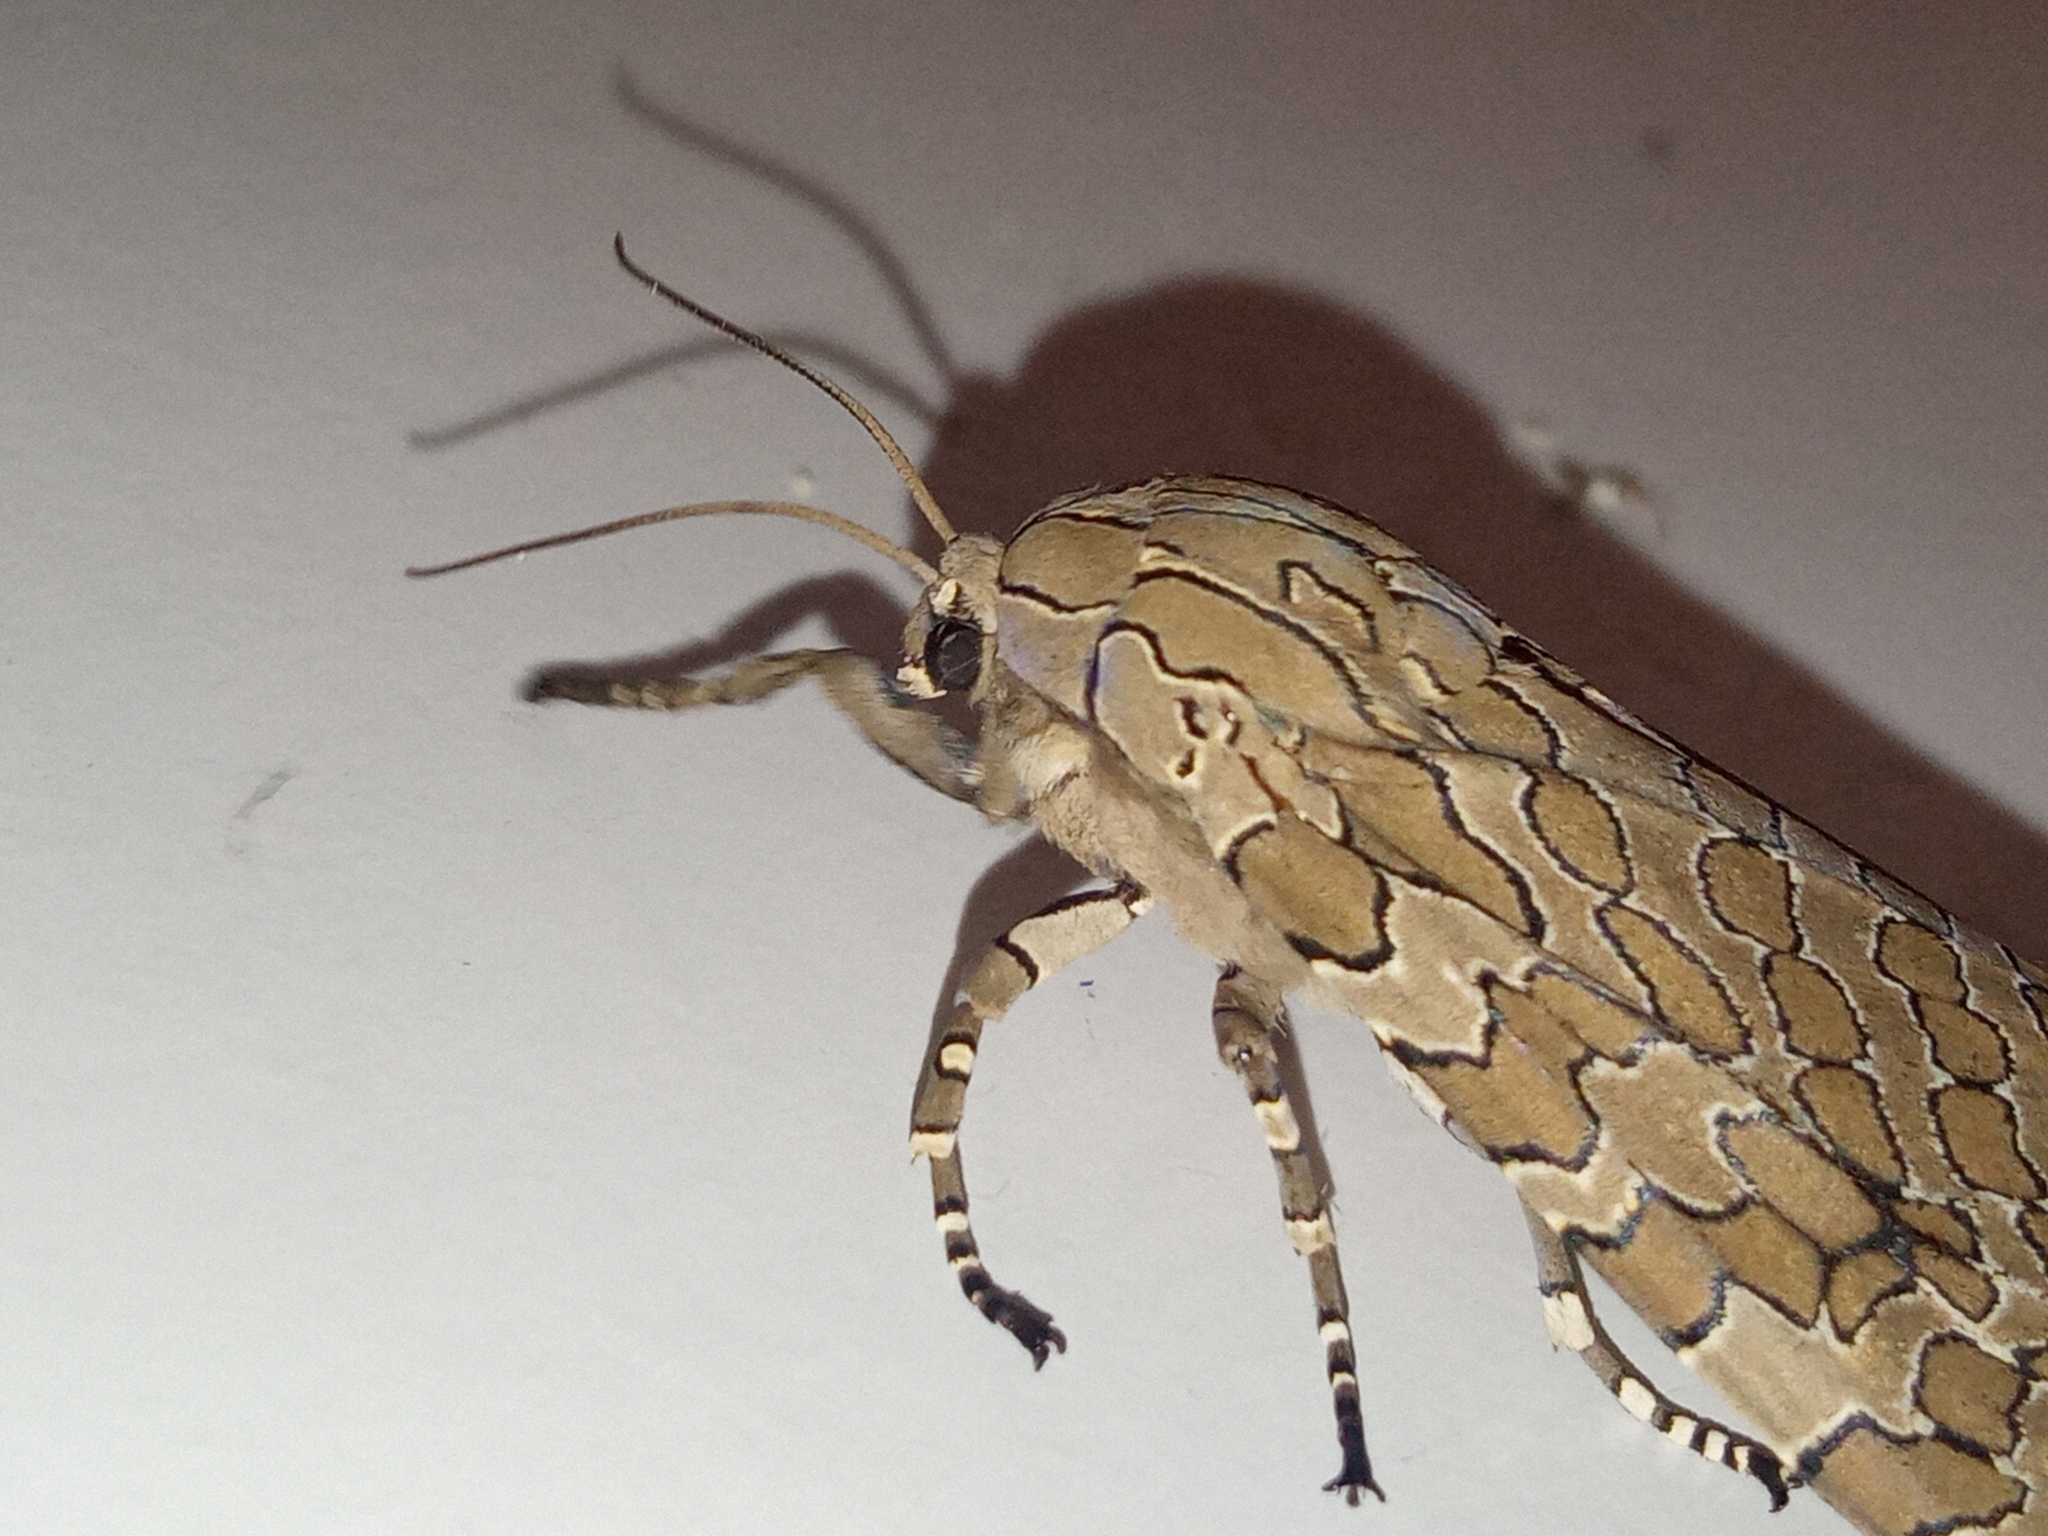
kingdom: Animalia
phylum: Arthropoda
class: Insecta
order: Lepidoptera
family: Erebidae
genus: Hypercompe
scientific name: Hypercompe indecisa
